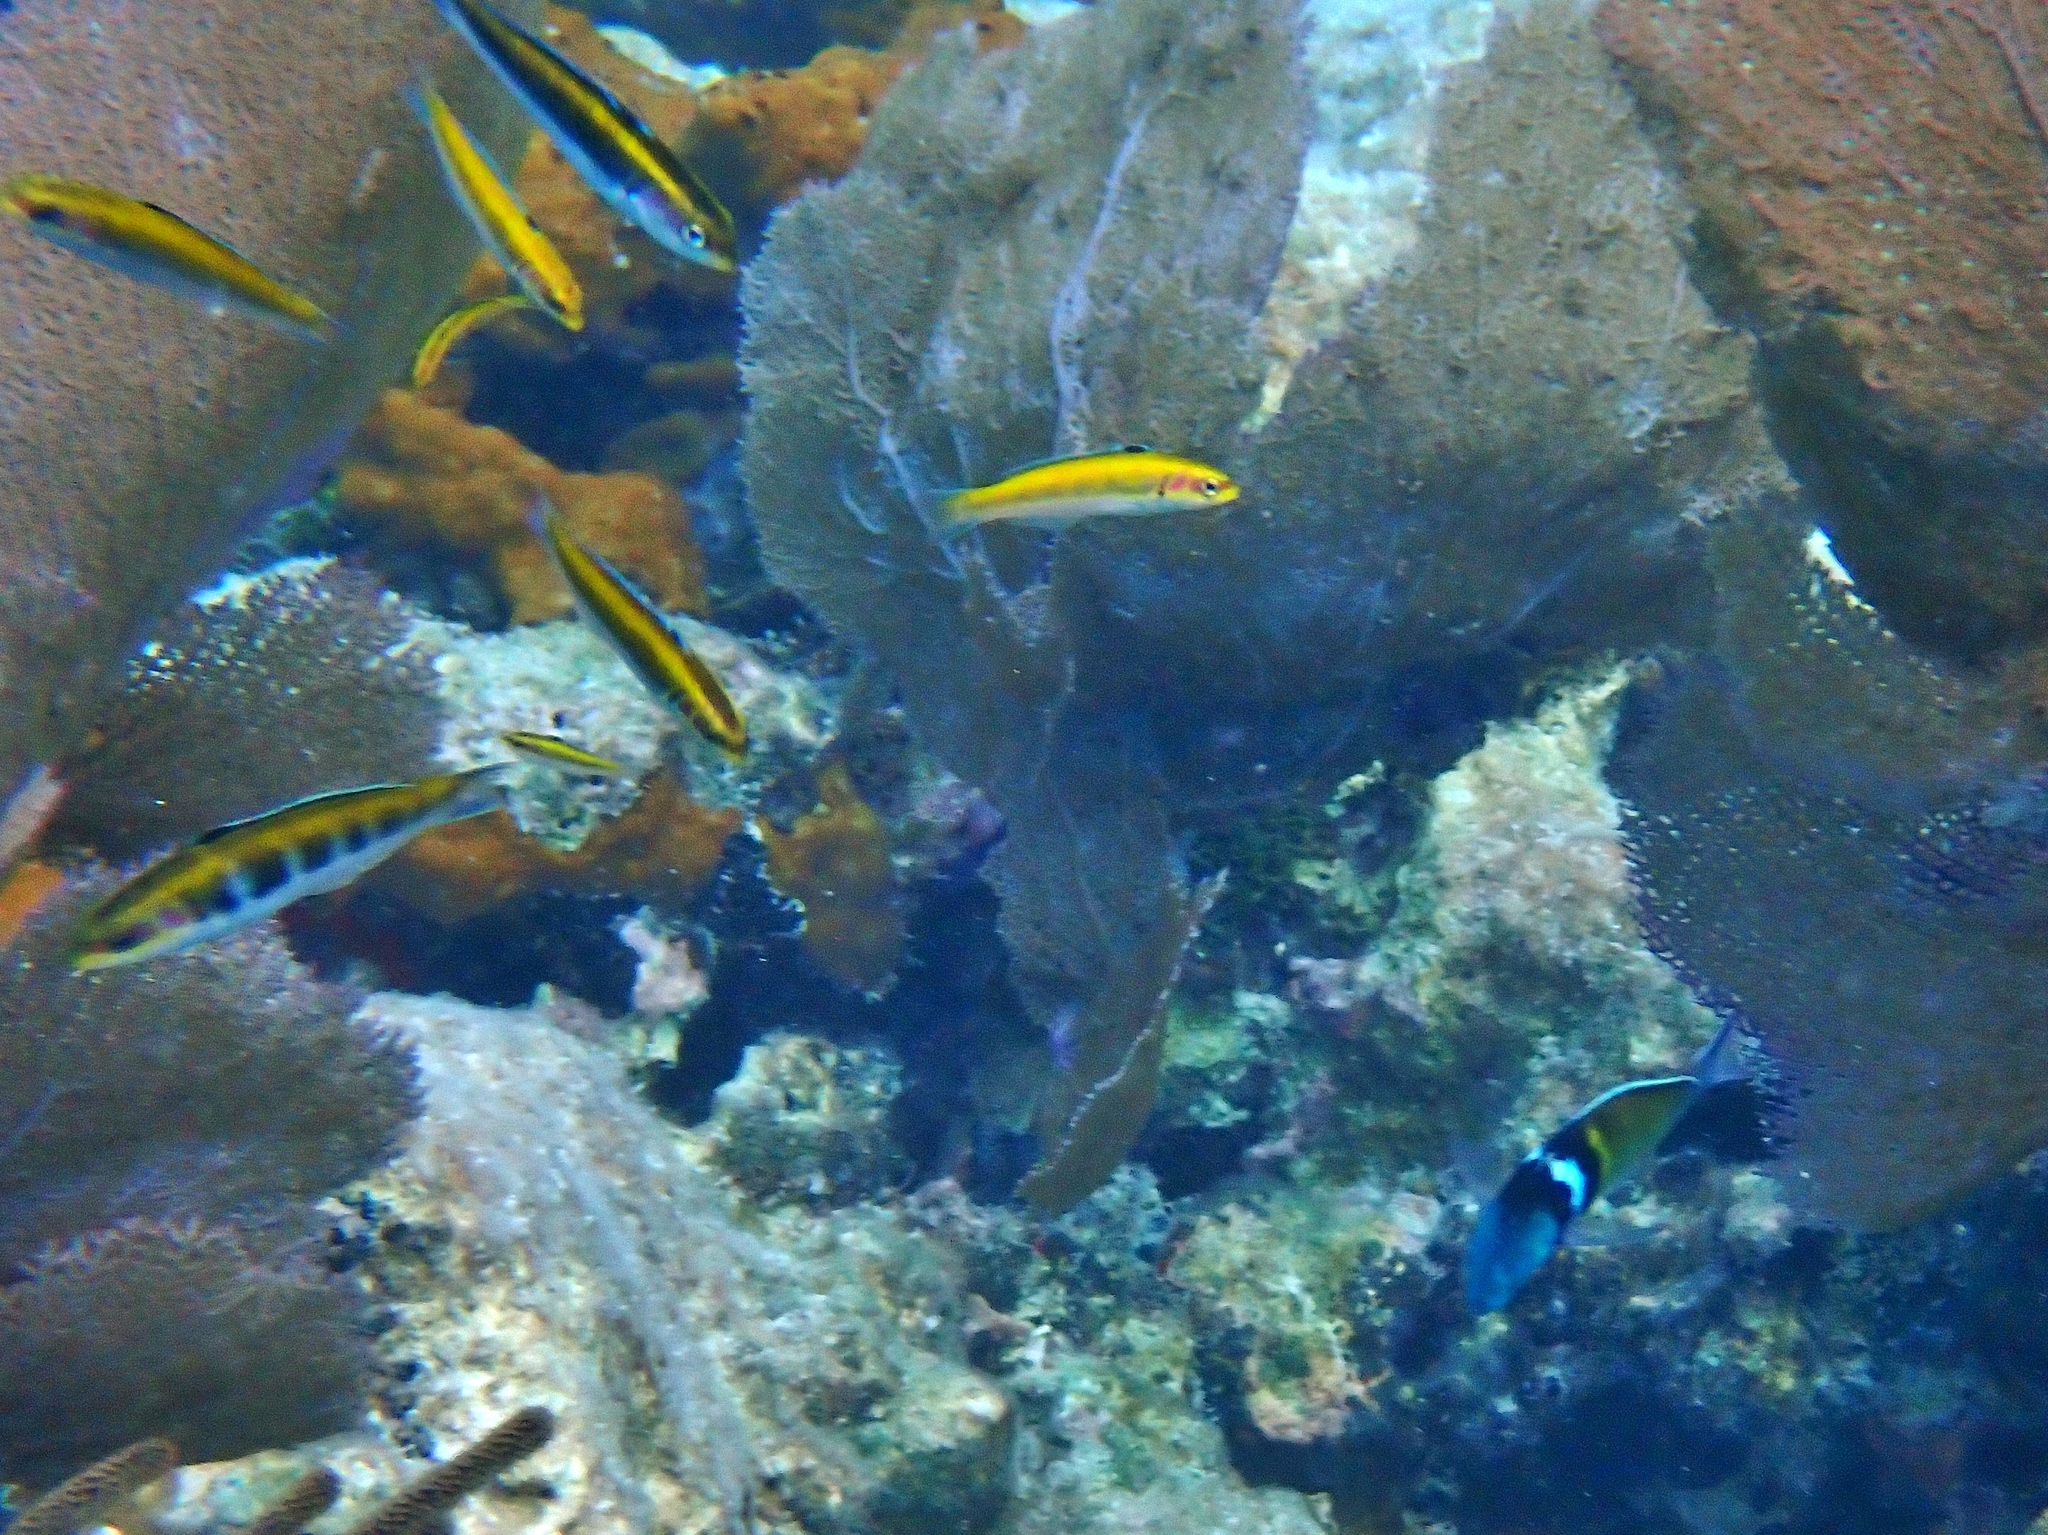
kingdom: Animalia
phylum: Chordata
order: Perciformes
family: Labridae
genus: Thalassoma
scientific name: Thalassoma bifasciatum
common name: Bluehead wrasse
